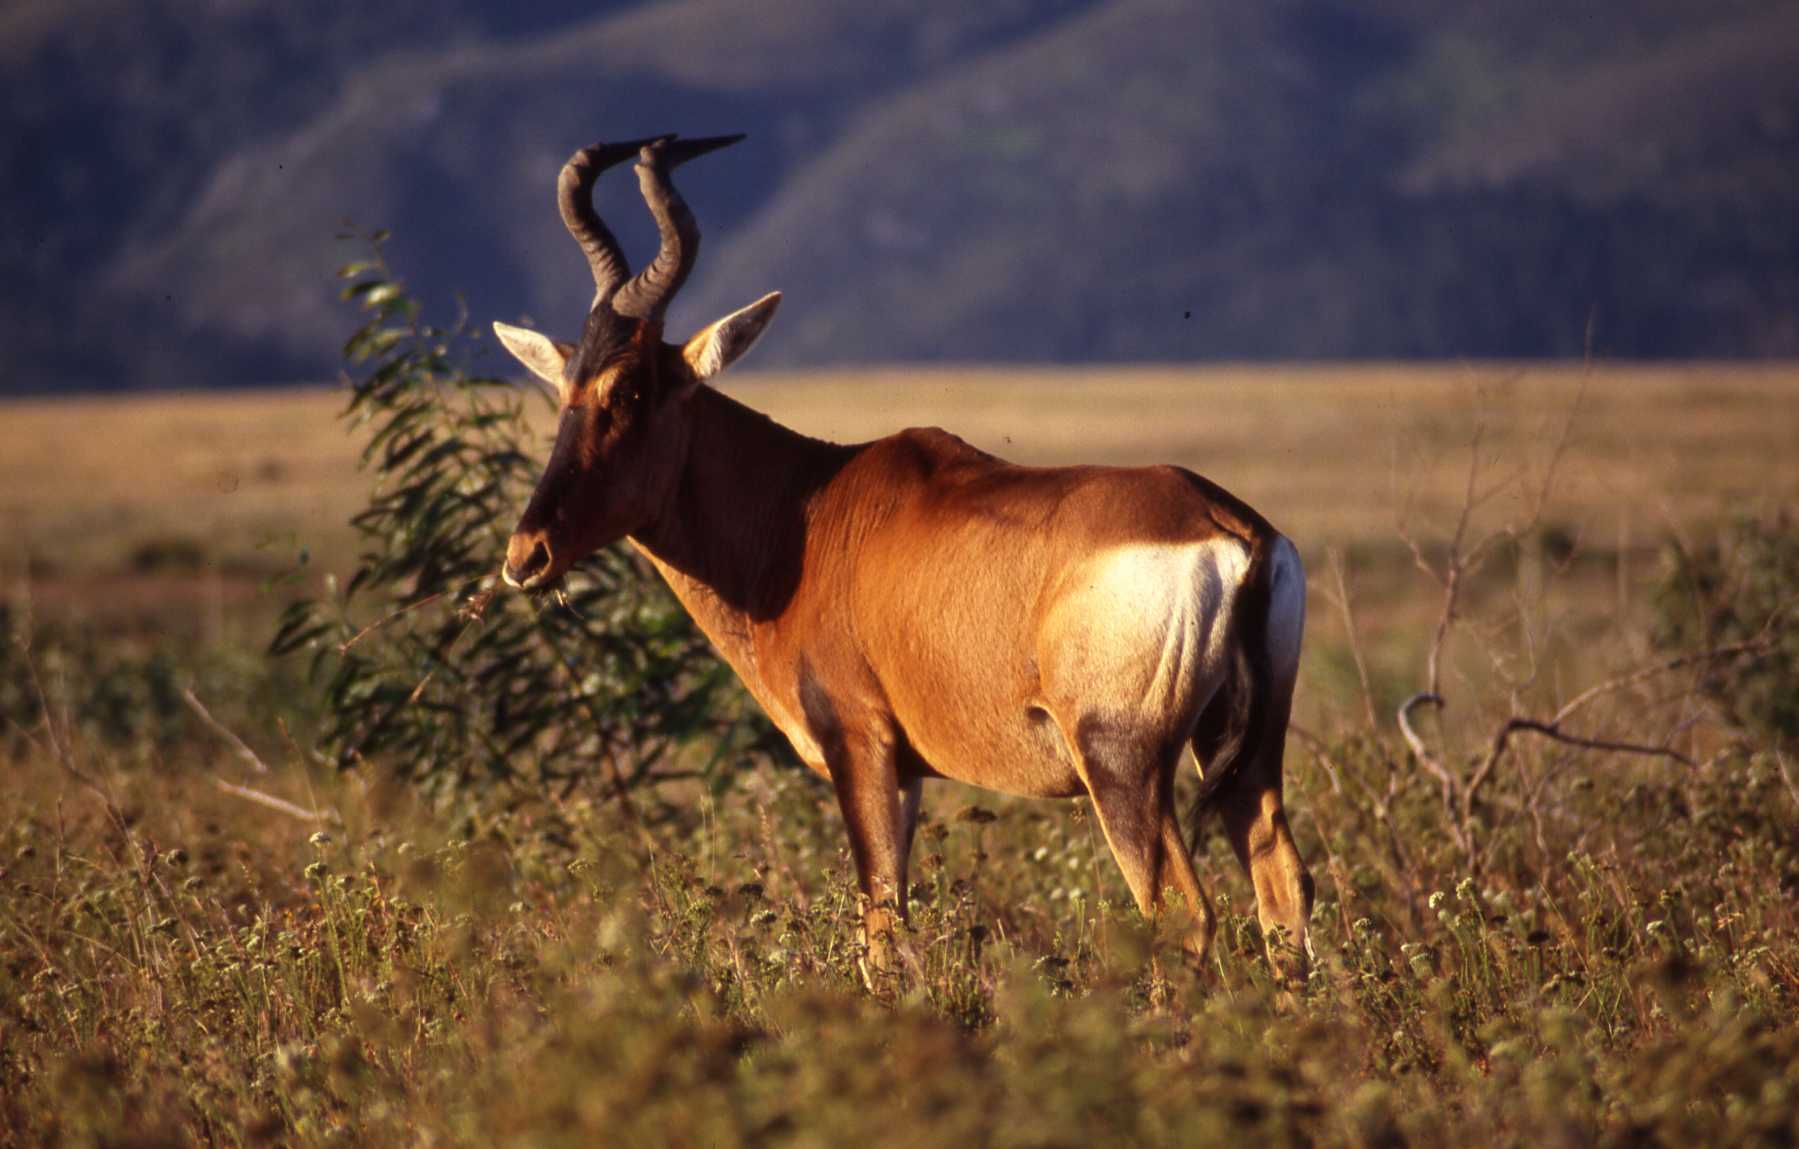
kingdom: Animalia
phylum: Chordata
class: Mammalia
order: Artiodactyla
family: Bovidae
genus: Alcelaphus
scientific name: Alcelaphus caama
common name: Red hartebeest
